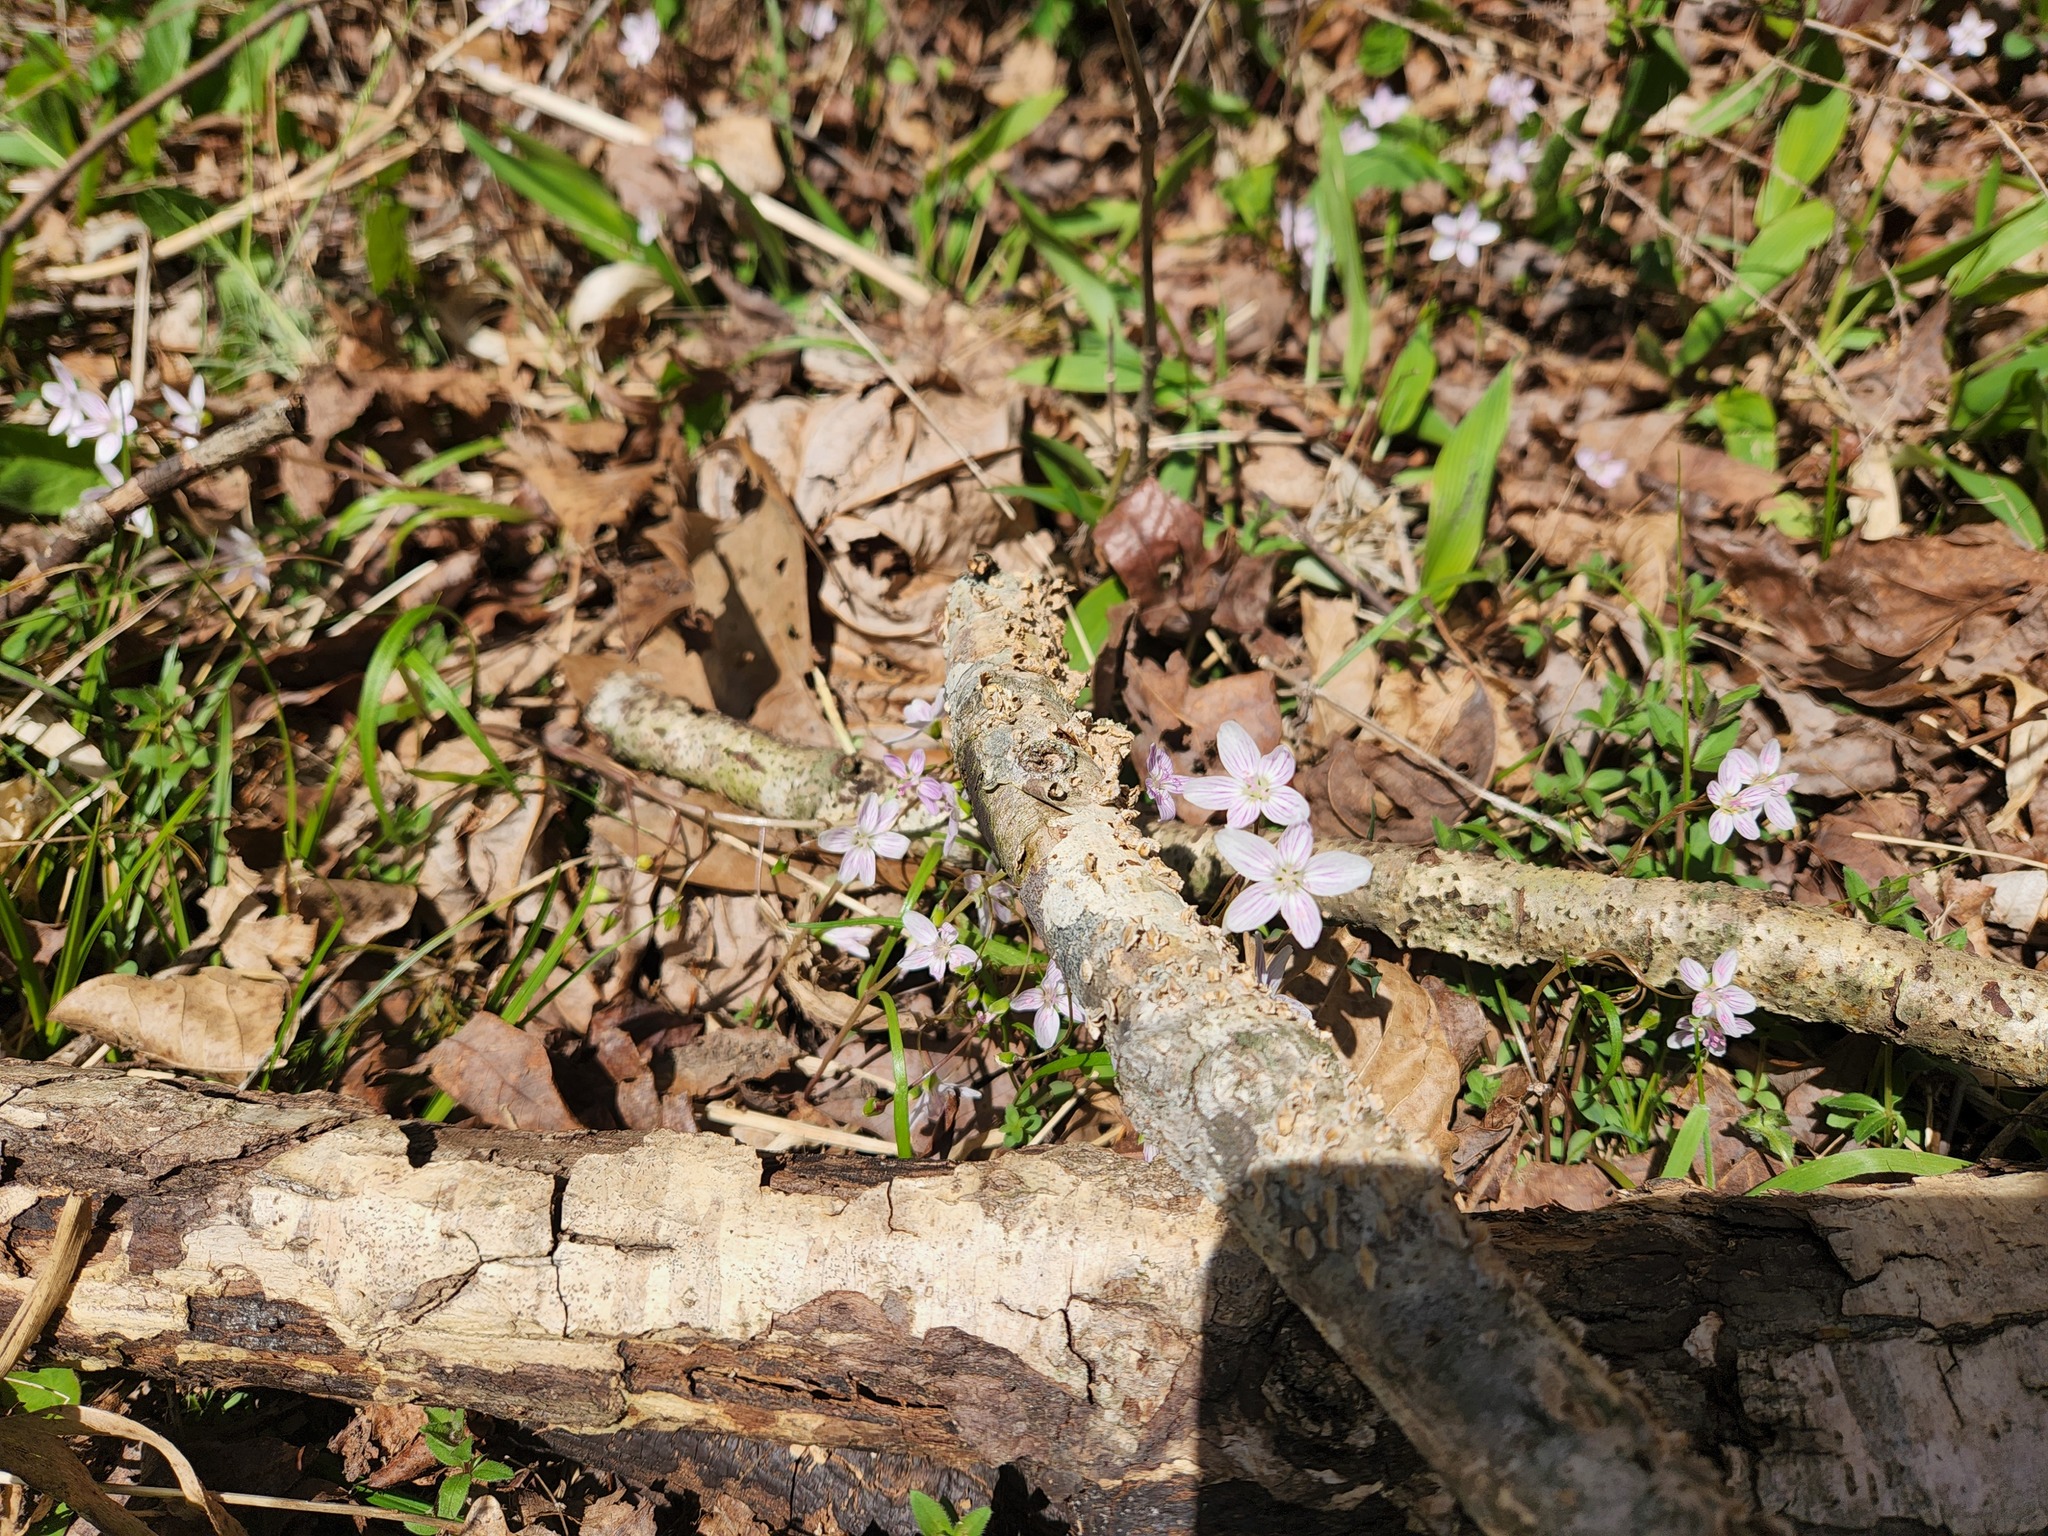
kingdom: Plantae
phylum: Tracheophyta
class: Magnoliopsida
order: Caryophyllales
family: Montiaceae
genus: Claytonia
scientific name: Claytonia virginica
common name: Virginia springbeauty
